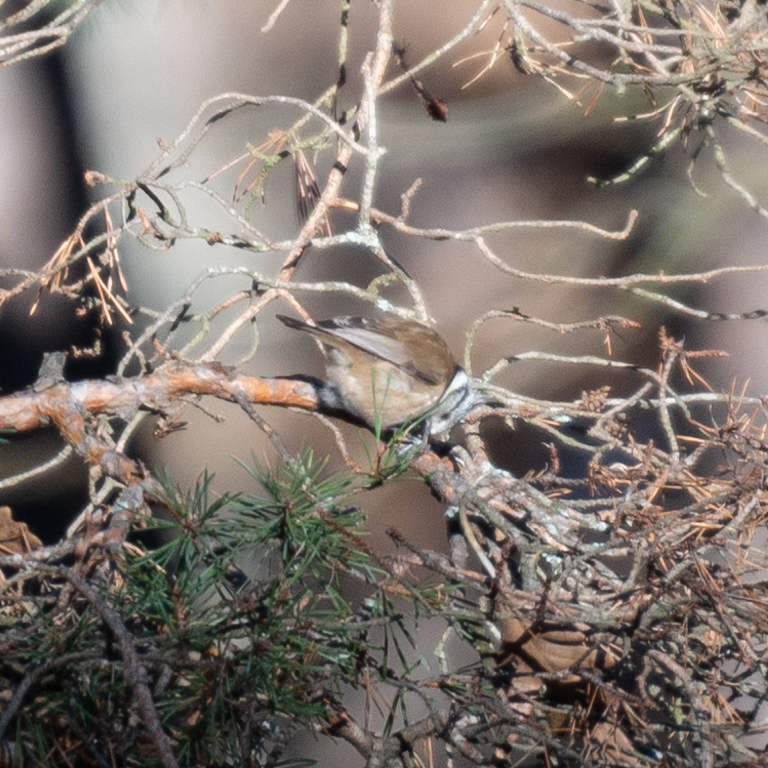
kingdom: Animalia
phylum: Chordata
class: Aves
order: Passeriformes
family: Paridae
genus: Lophophanes
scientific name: Lophophanes cristatus
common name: European crested tit
